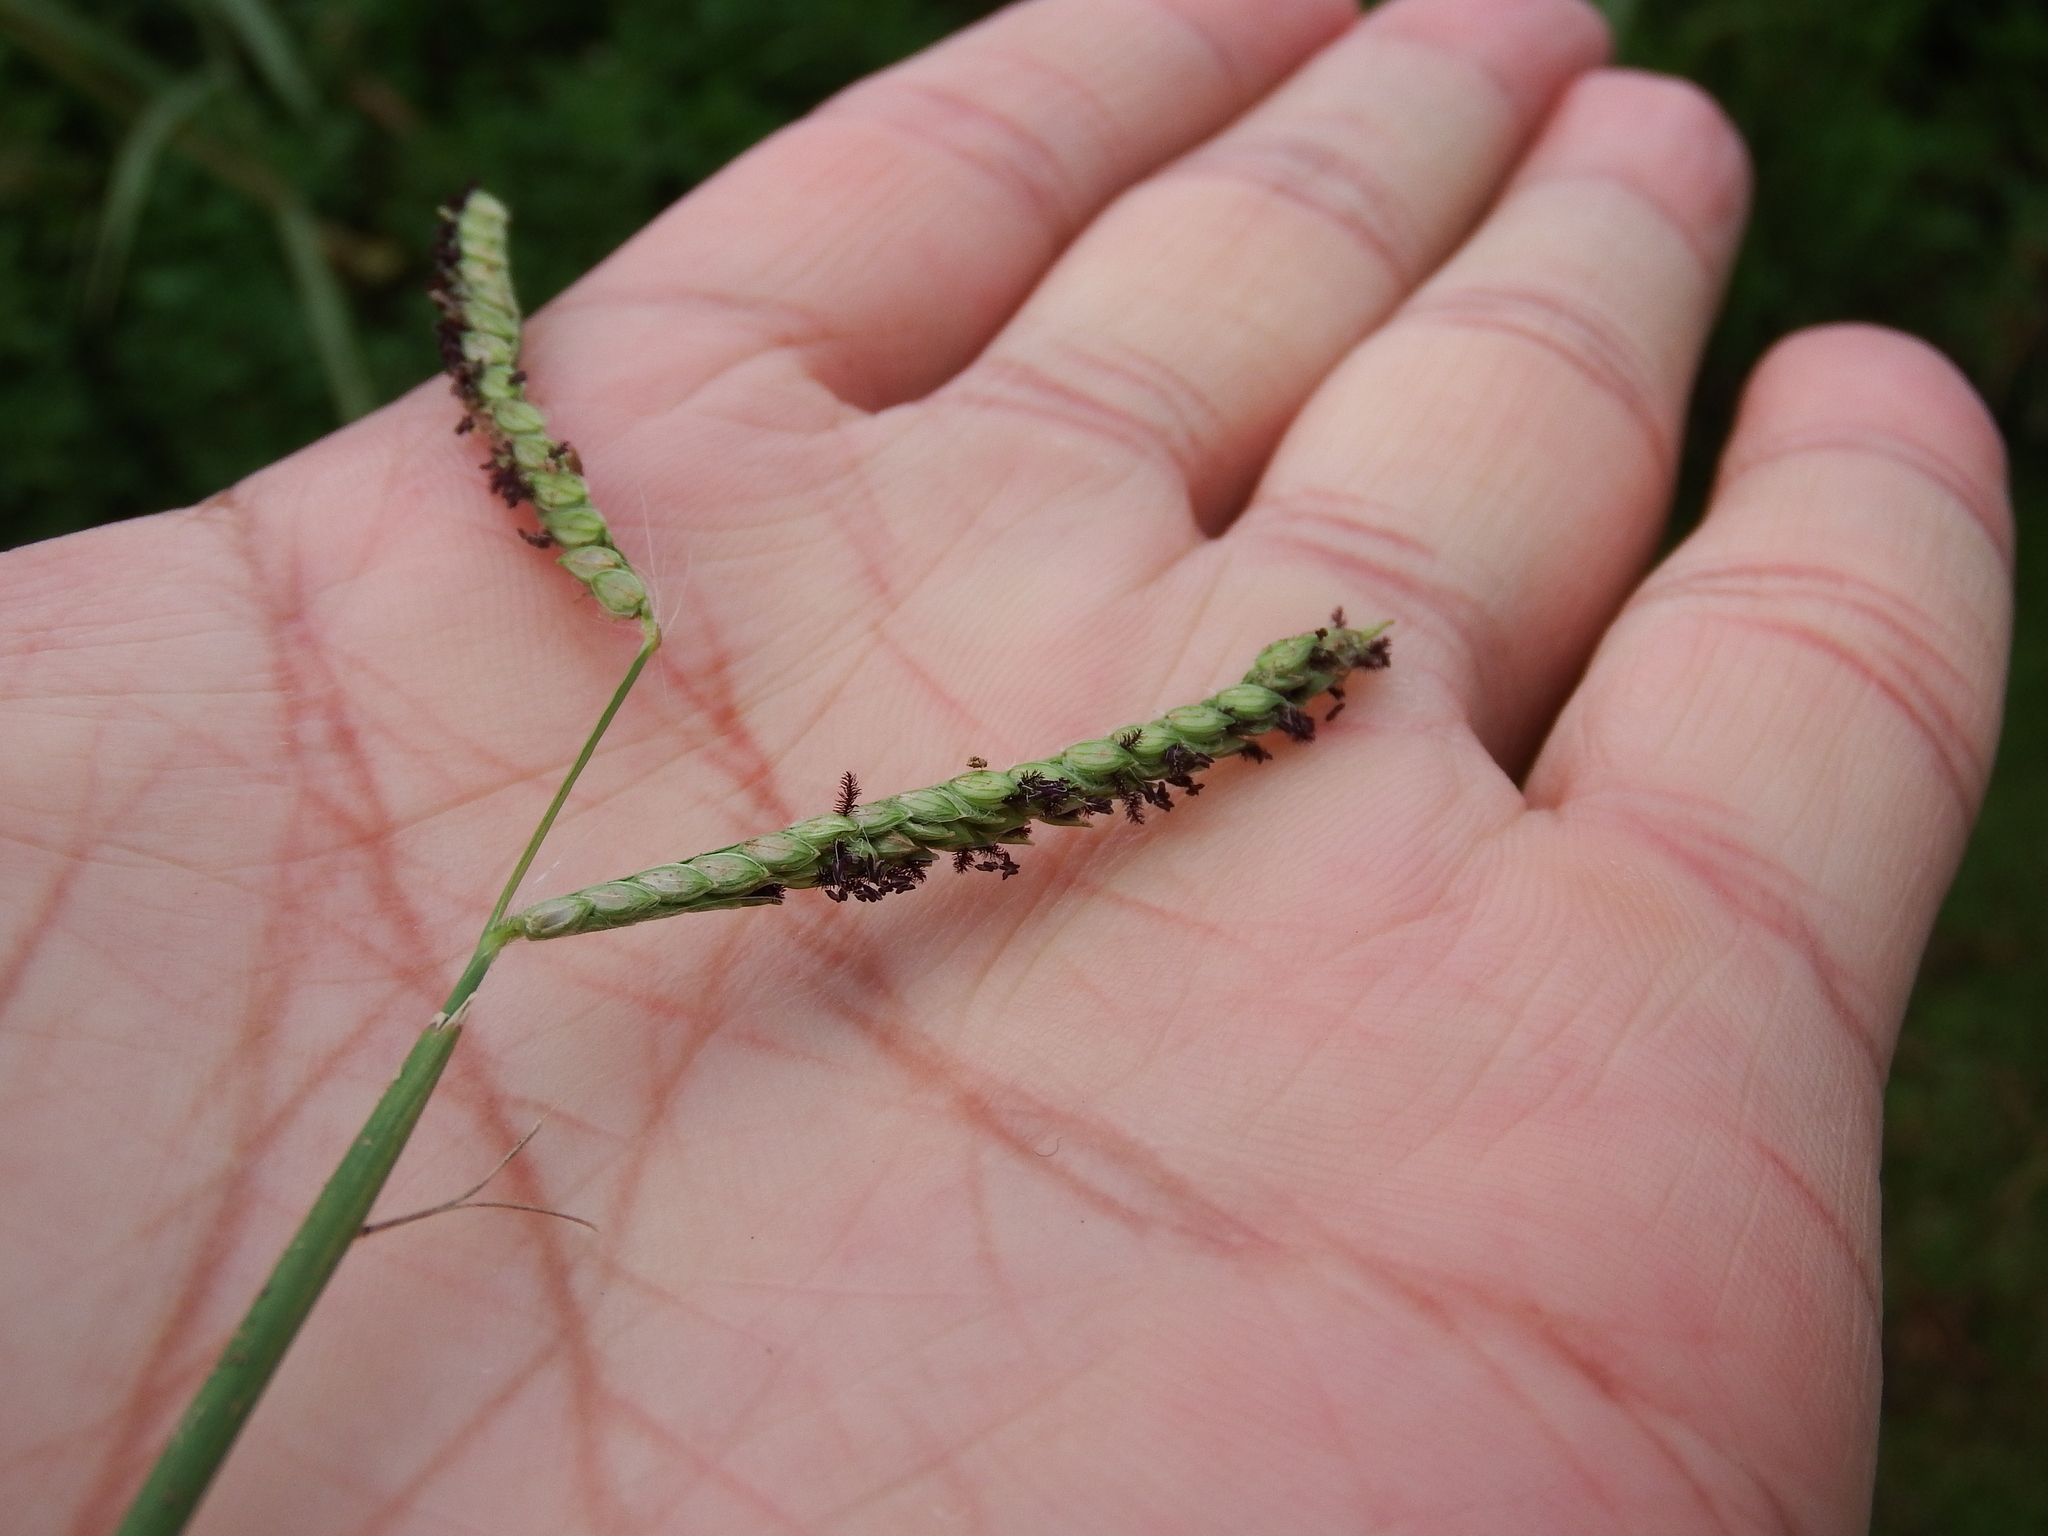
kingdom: Plantae
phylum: Tracheophyta
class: Liliopsida
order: Poales
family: Poaceae
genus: Paspalum
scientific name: Paspalum dilatatum
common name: Dallisgrass
